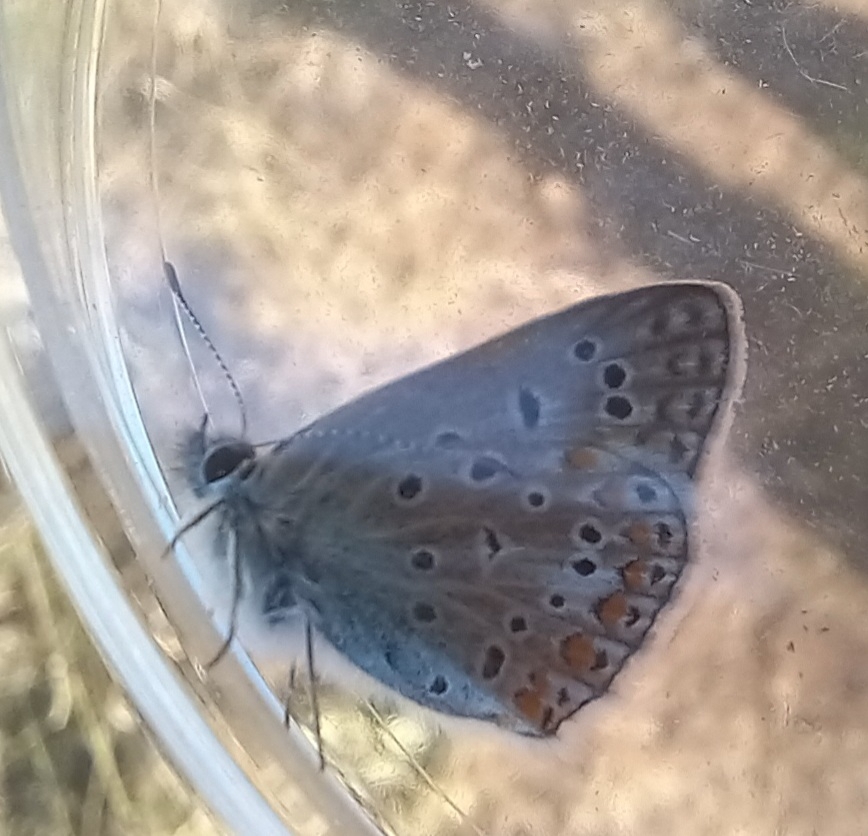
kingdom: Animalia
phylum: Arthropoda
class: Insecta
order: Lepidoptera
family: Lycaenidae
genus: Polyommatus
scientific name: Polyommatus icarus
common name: Common blue
